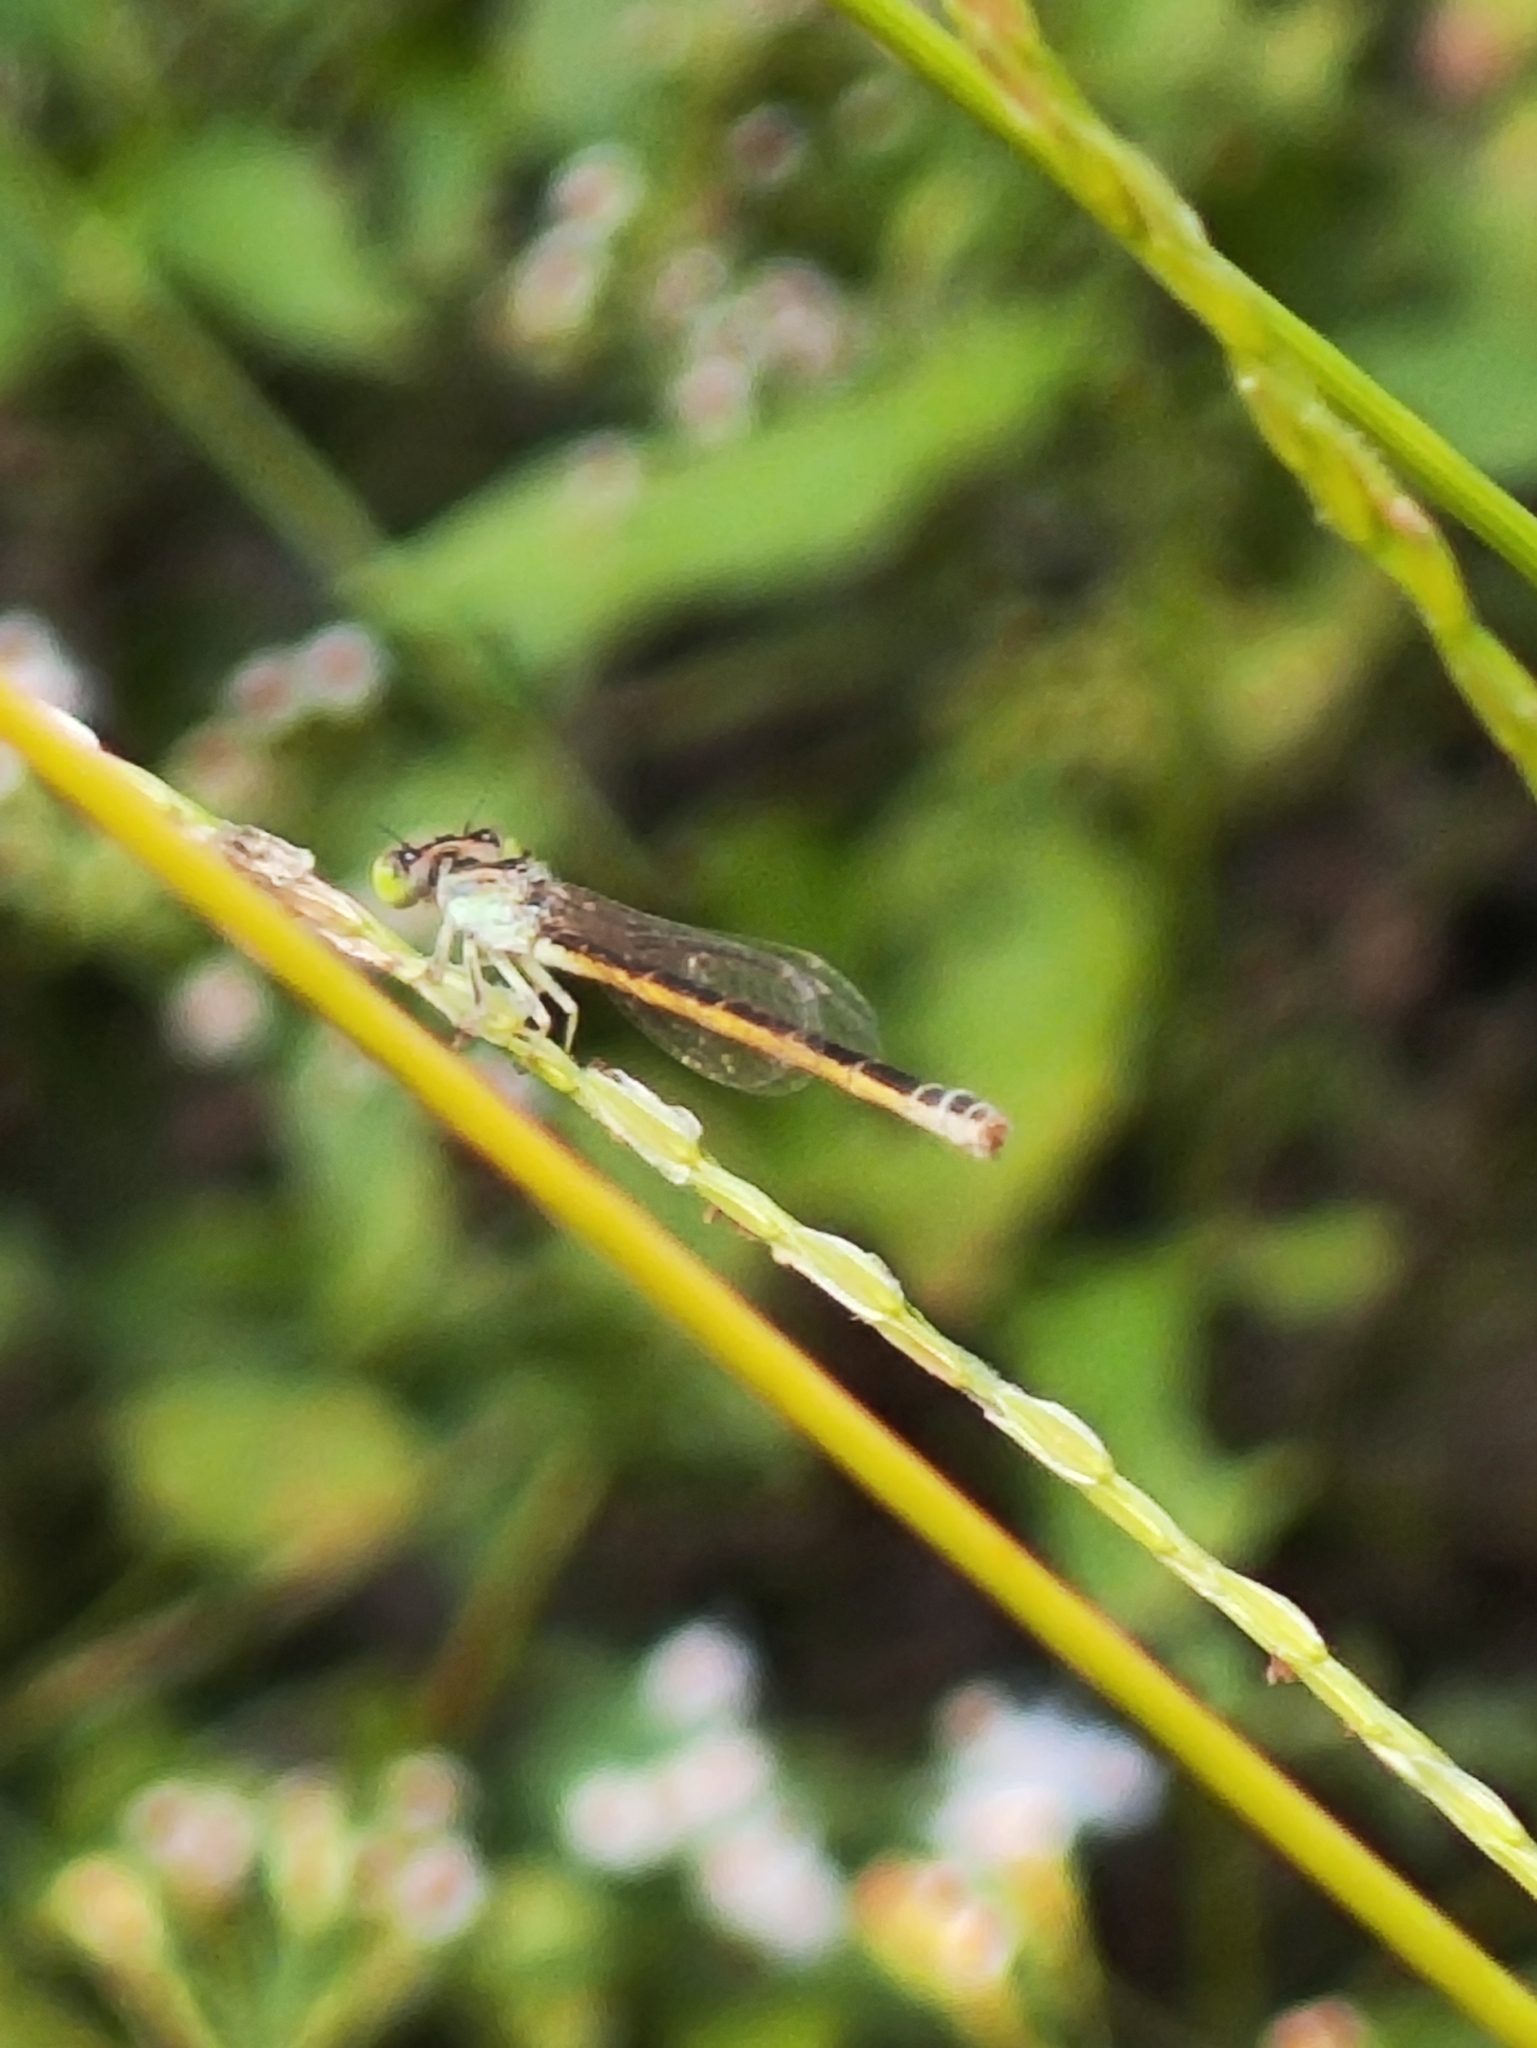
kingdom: Animalia
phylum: Arthropoda
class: Insecta
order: Odonata
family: Coenagrionidae
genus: Ischnura
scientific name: Ischnura rubilio
